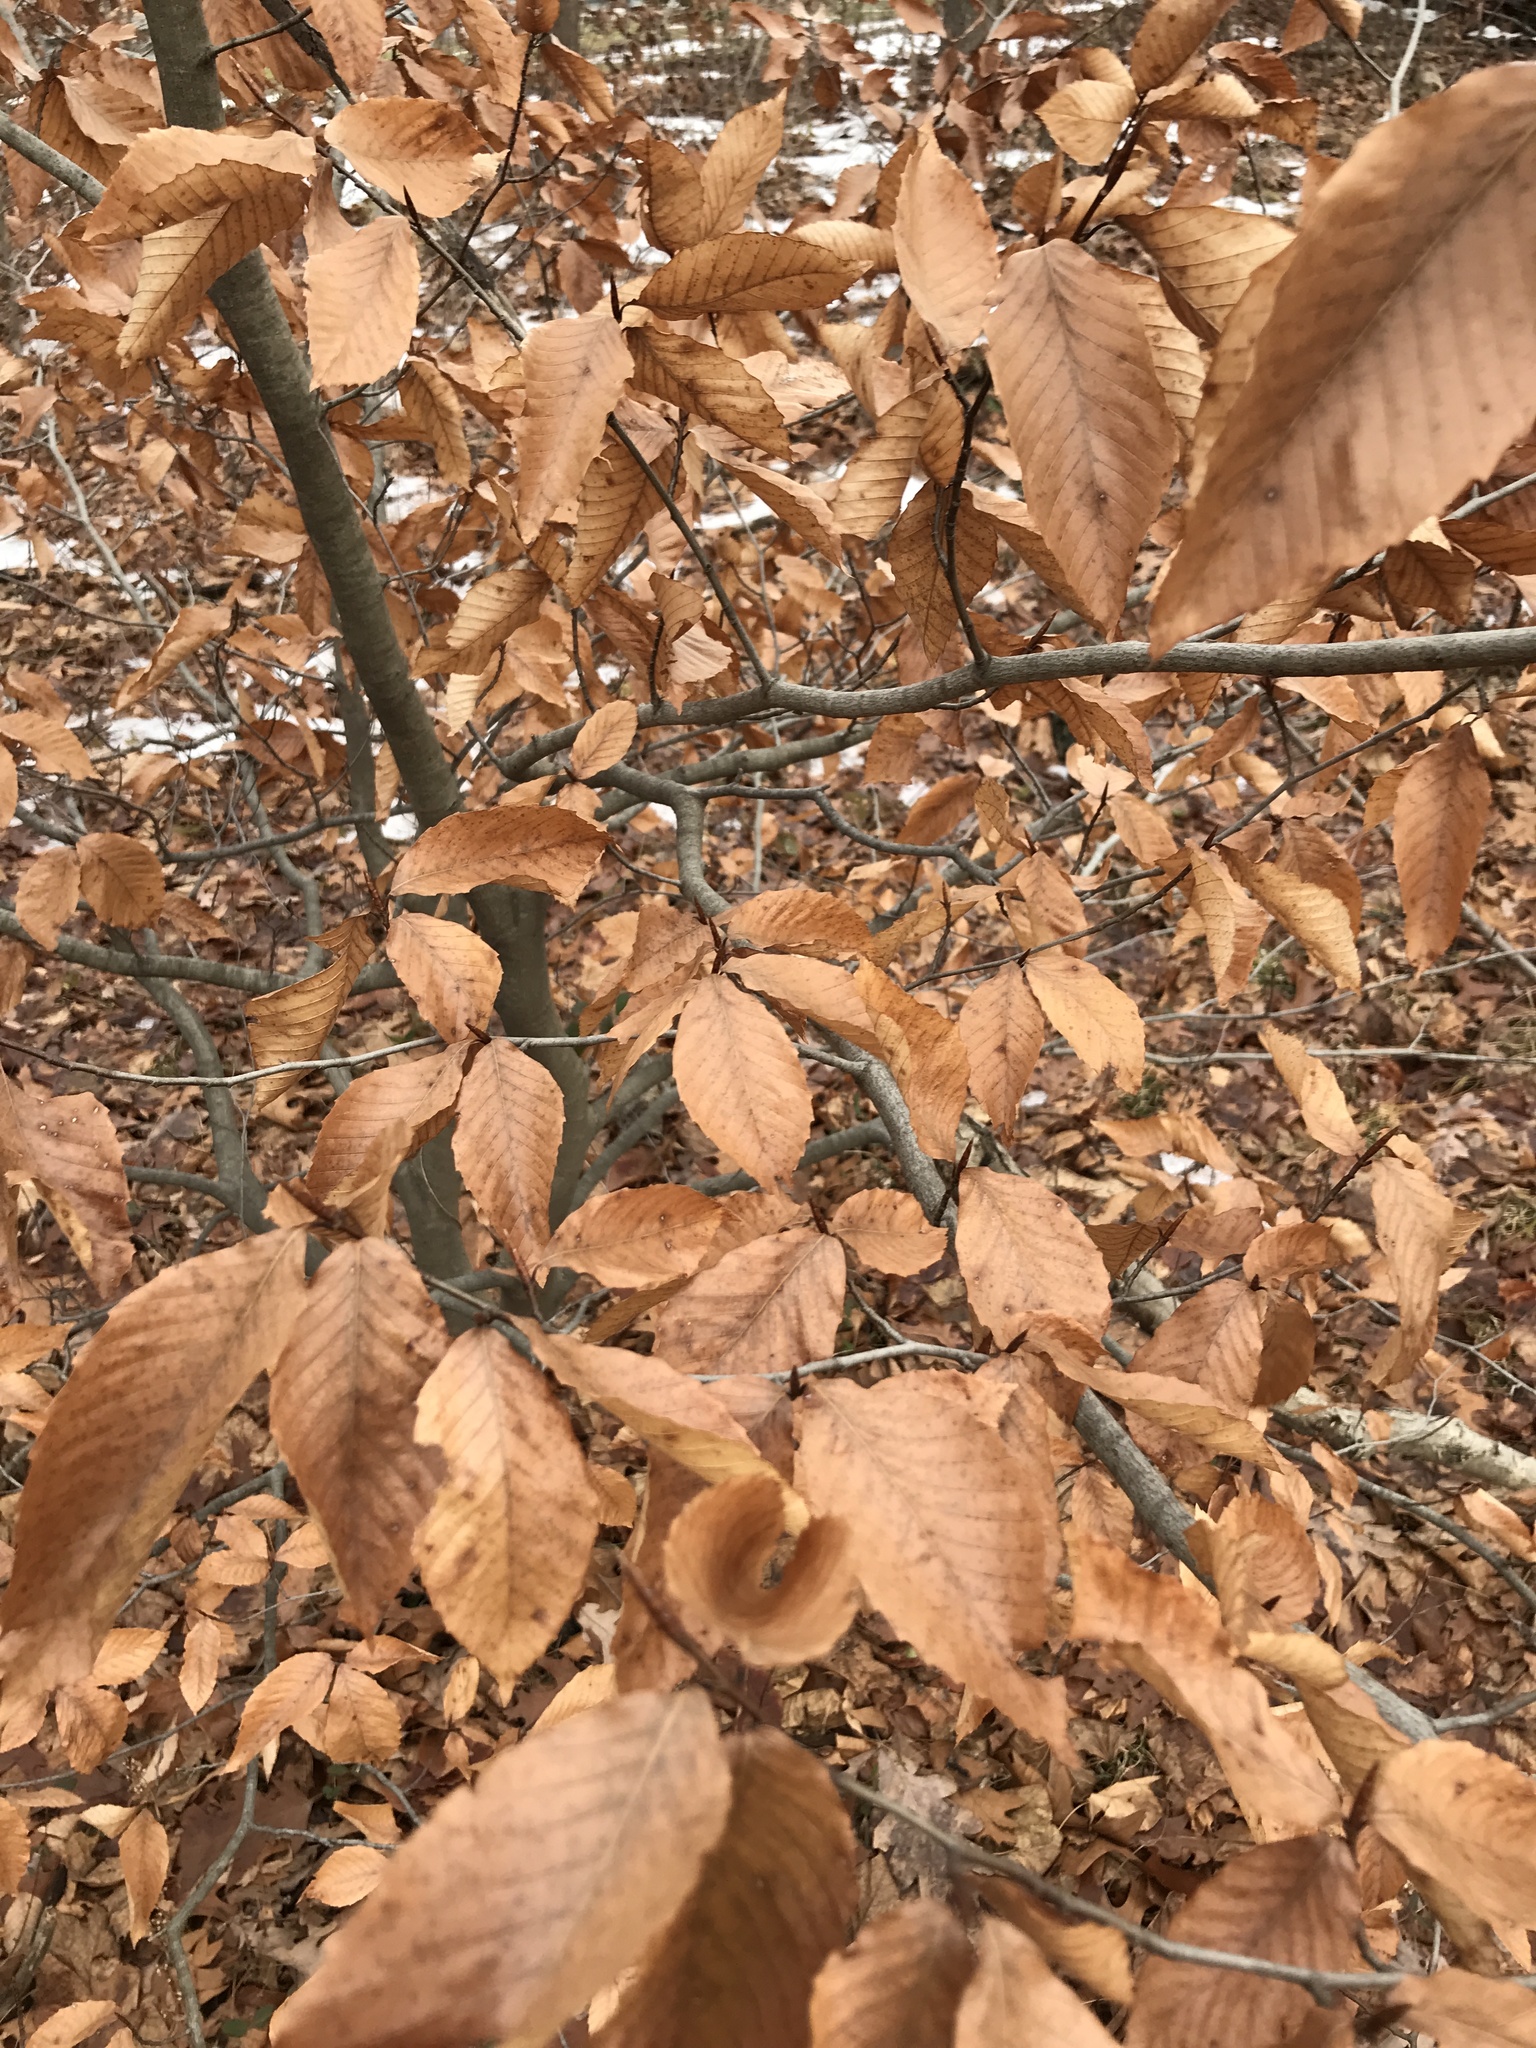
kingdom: Plantae
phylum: Tracheophyta
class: Magnoliopsida
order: Fagales
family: Fagaceae
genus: Fagus
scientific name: Fagus grandifolia
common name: American beech
